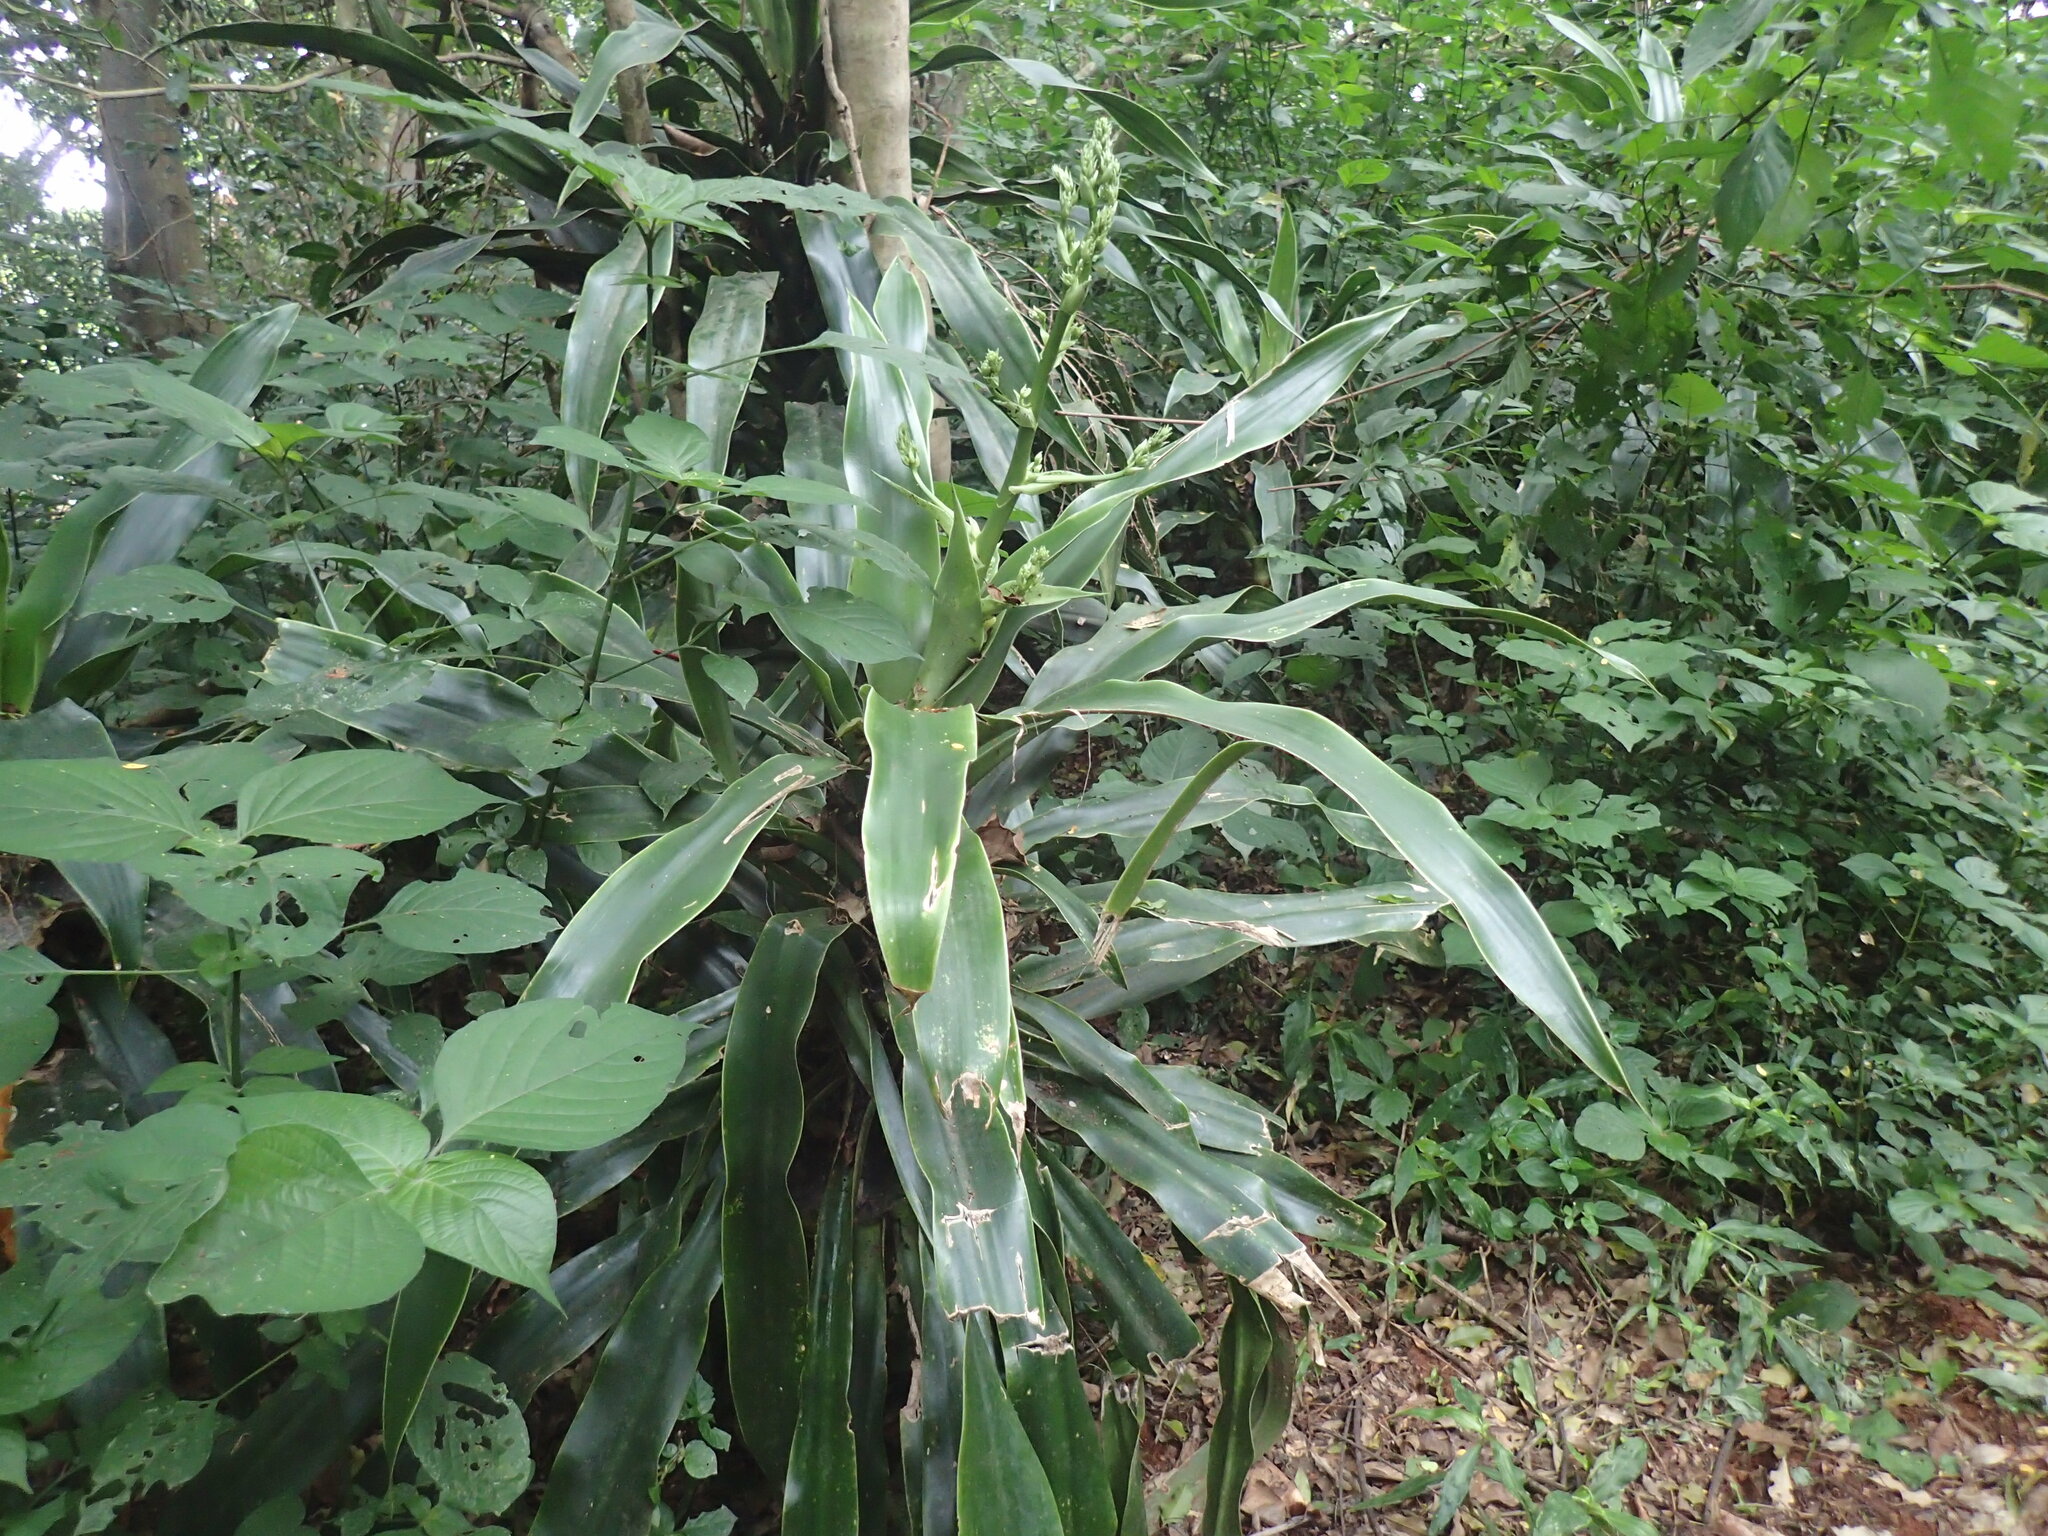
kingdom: Plantae
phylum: Tracheophyta
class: Liliopsida
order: Asparagales
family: Asparagaceae
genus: Dracaena
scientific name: Dracaena aletriformis
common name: Large-leaved dragon tree
